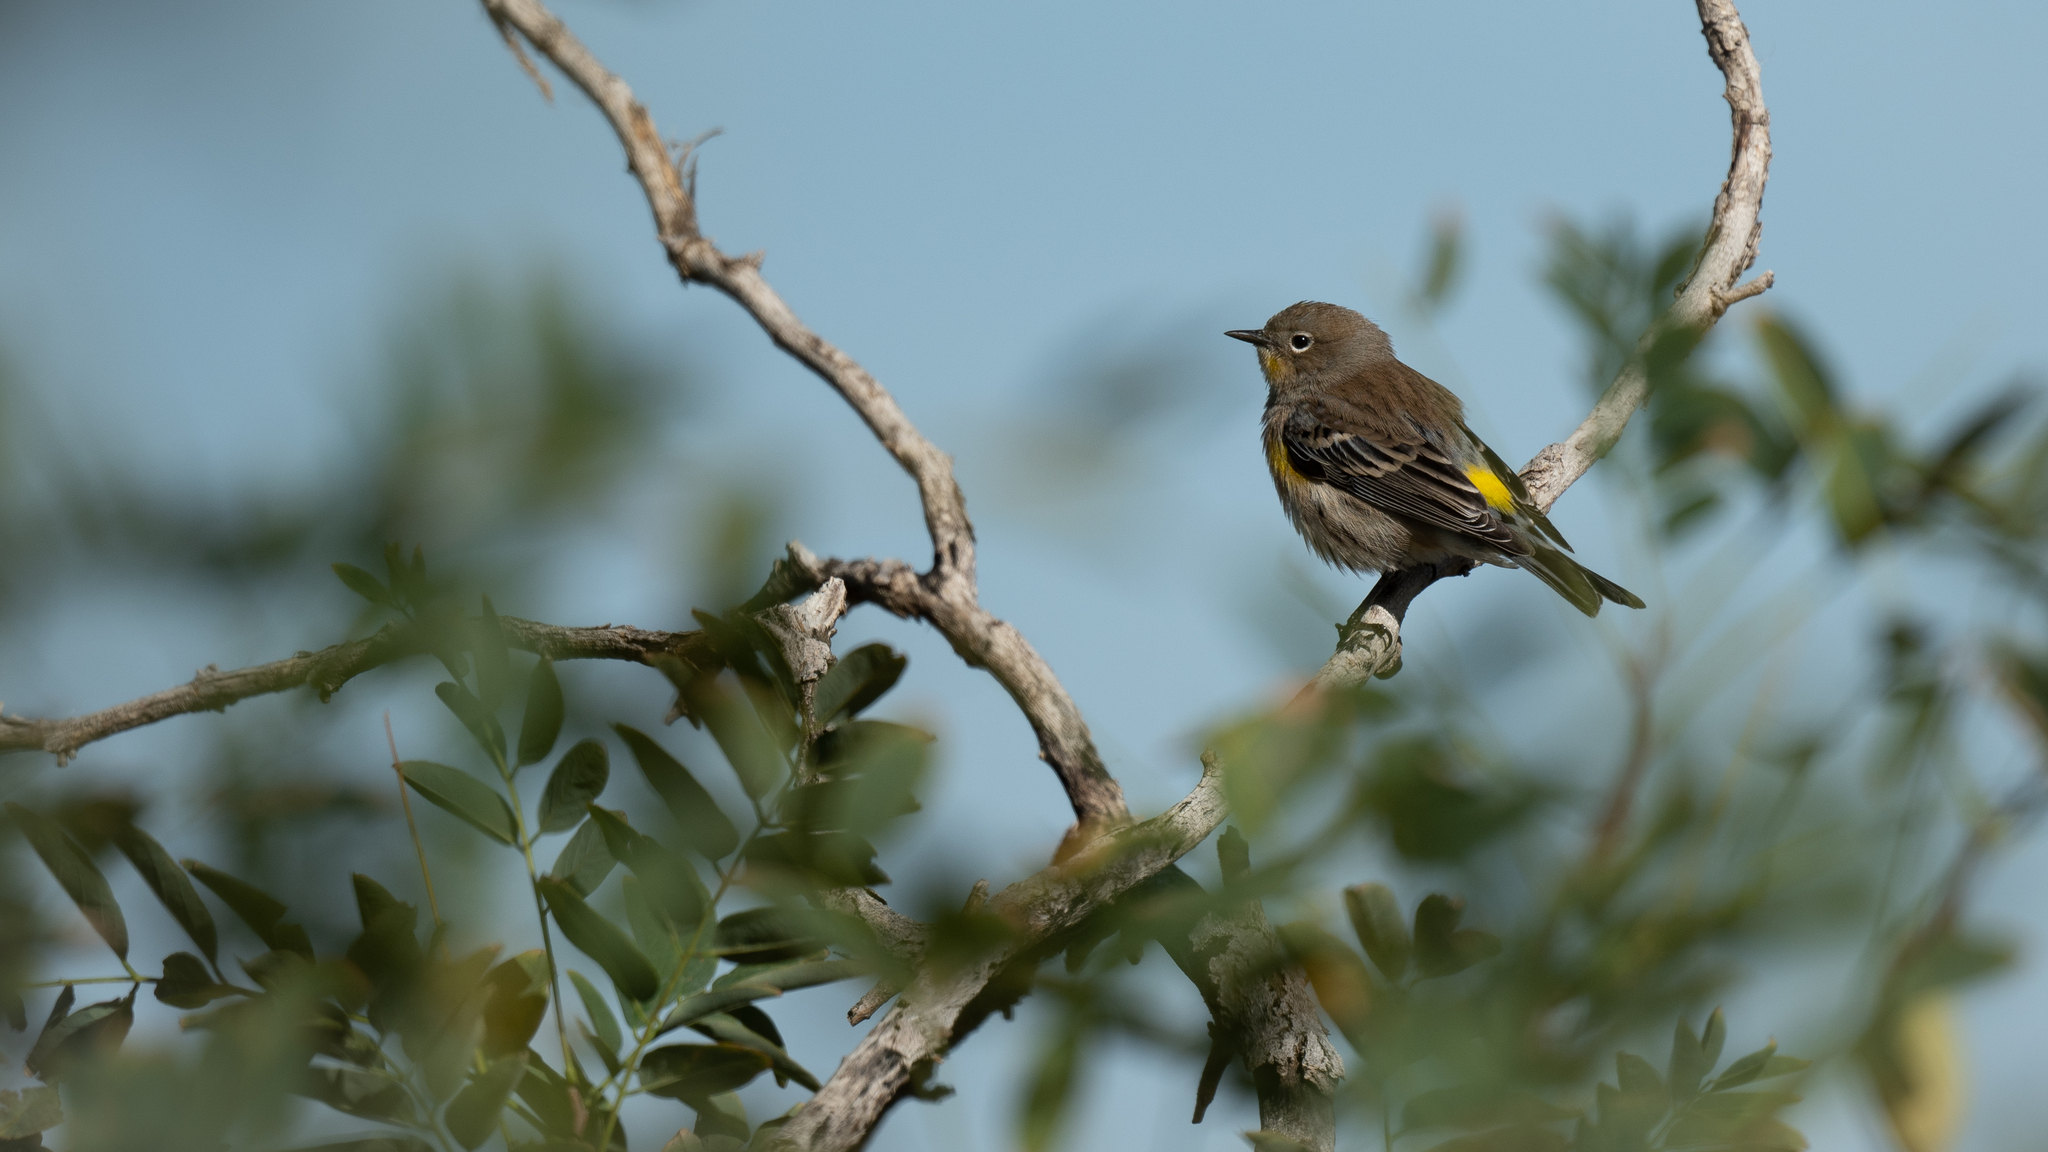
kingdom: Animalia
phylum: Chordata
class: Aves
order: Passeriformes
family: Parulidae
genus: Setophaga
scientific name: Setophaga coronata
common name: Myrtle warbler
